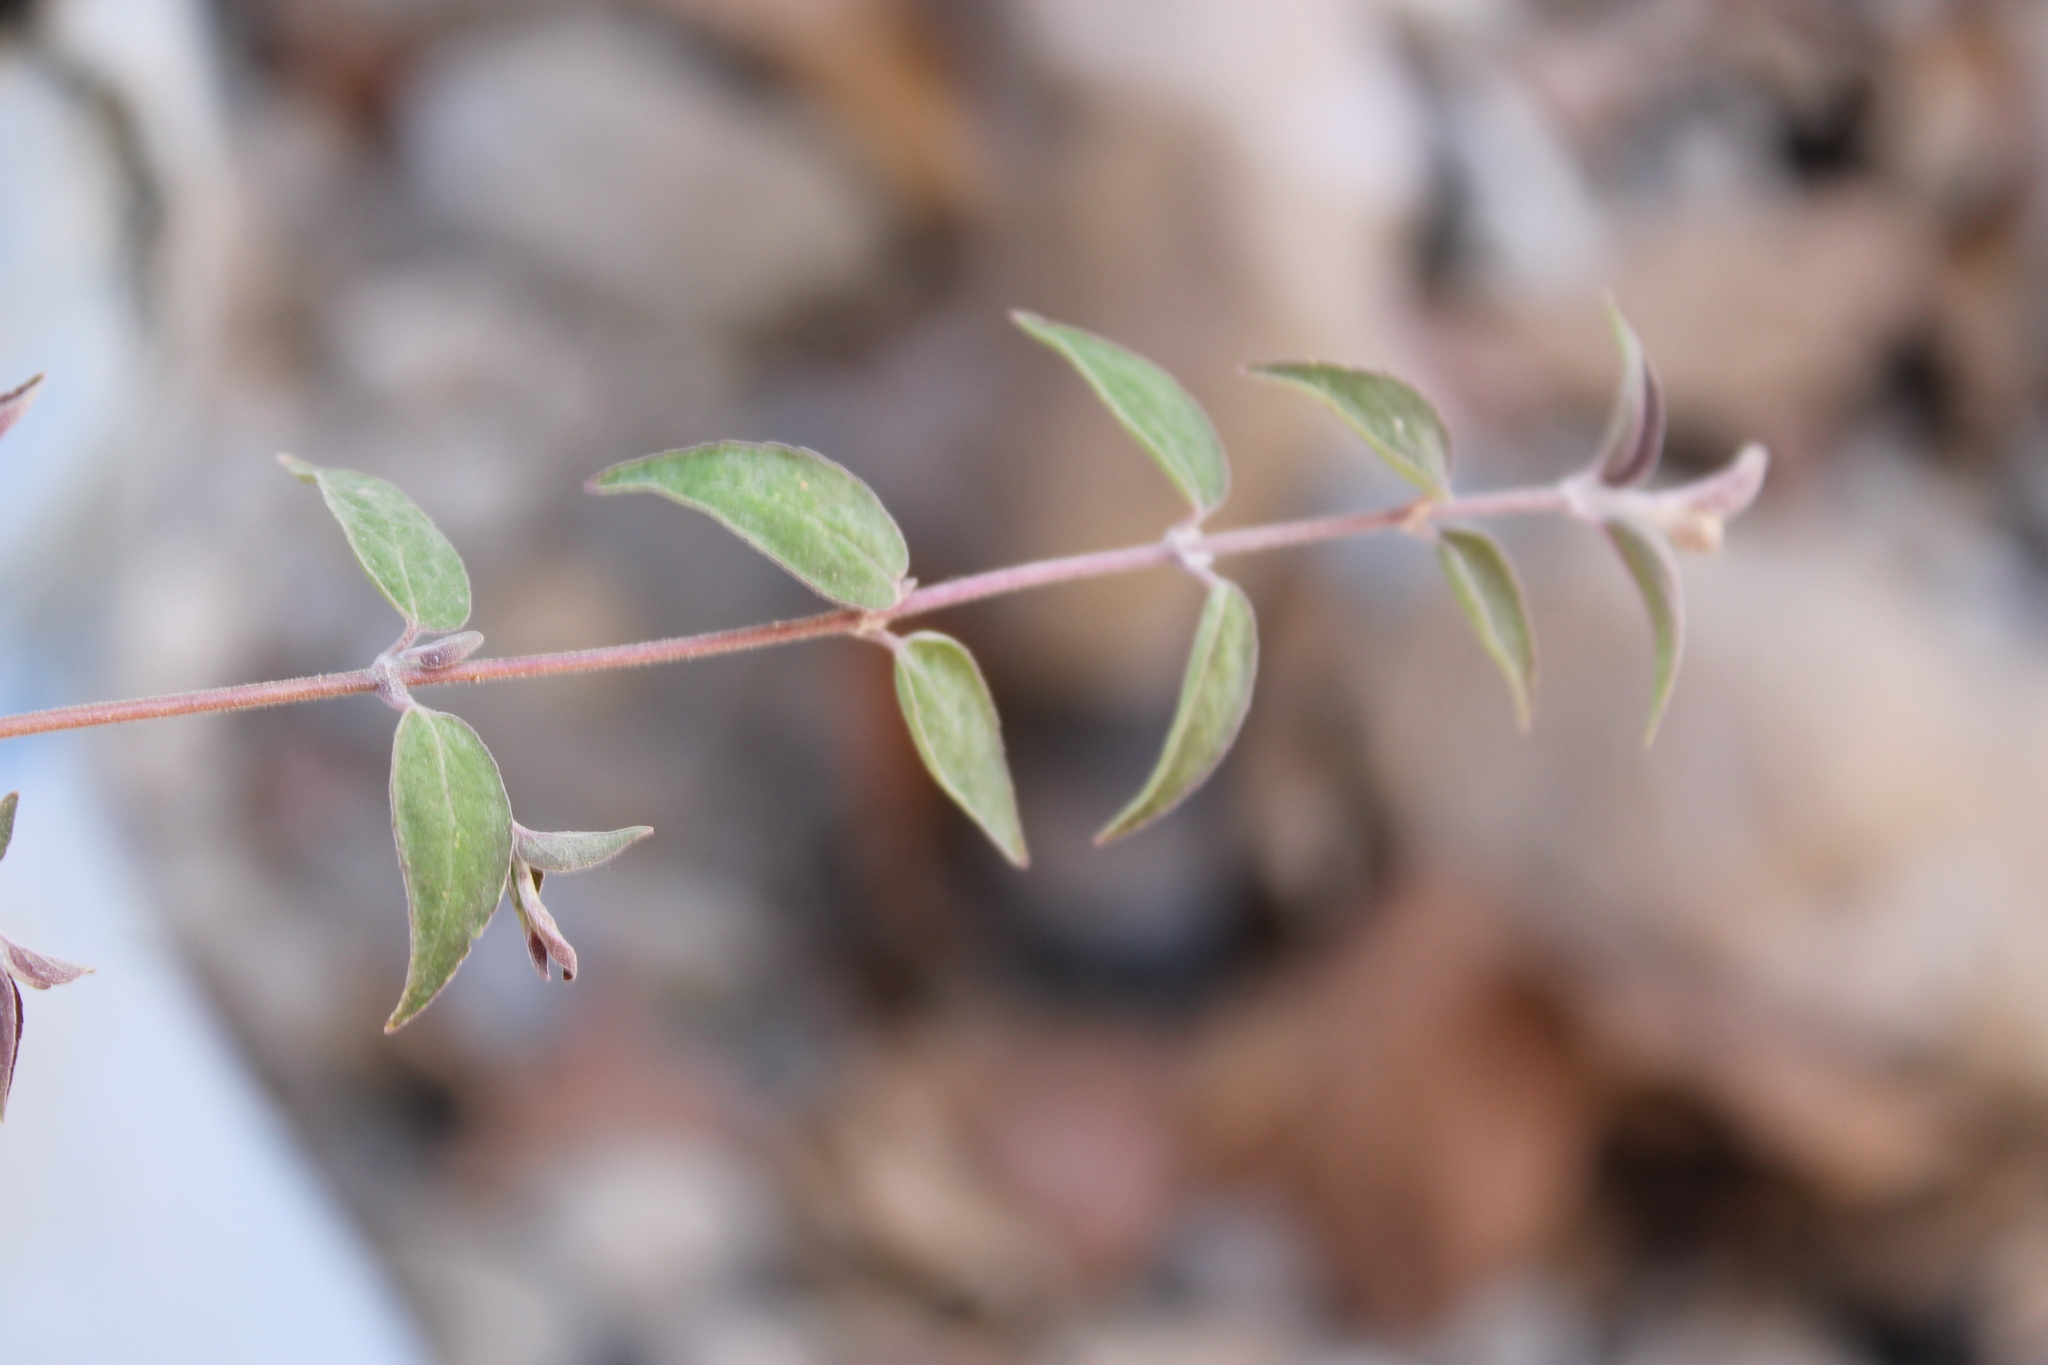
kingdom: Plantae
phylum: Tracheophyta
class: Magnoliopsida
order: Lamiales
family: Lamiaceae
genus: Cunila
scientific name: Cunila polyantha
